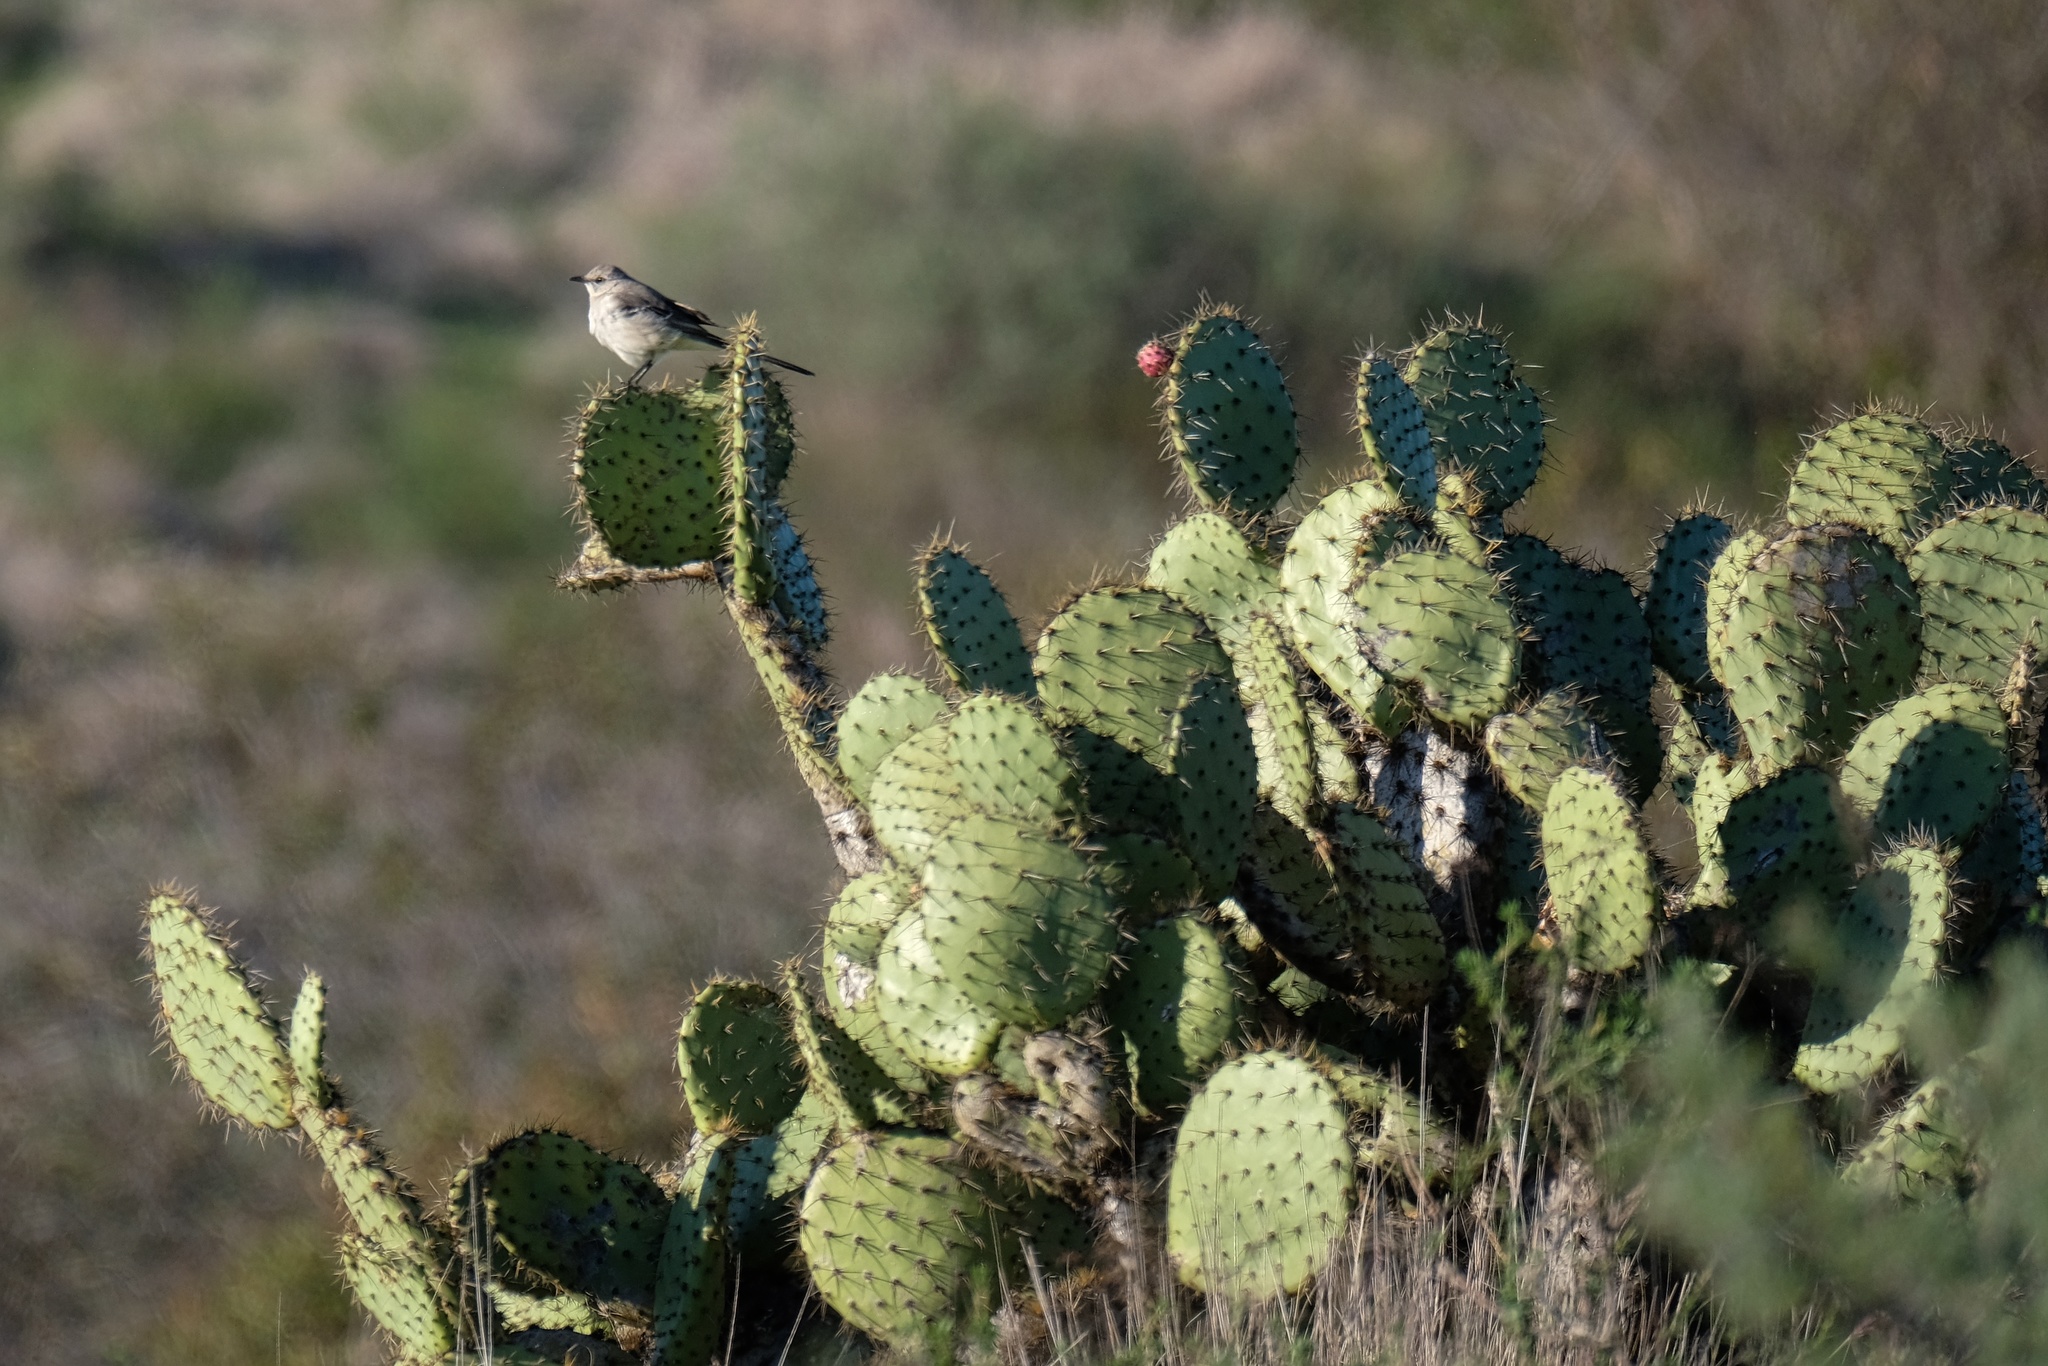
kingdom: Animalia
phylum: Chordata
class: Aves
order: Passeriformes
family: Mimidae
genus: Mimus
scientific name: Mimus polyglottos
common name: Northern mockingbird
